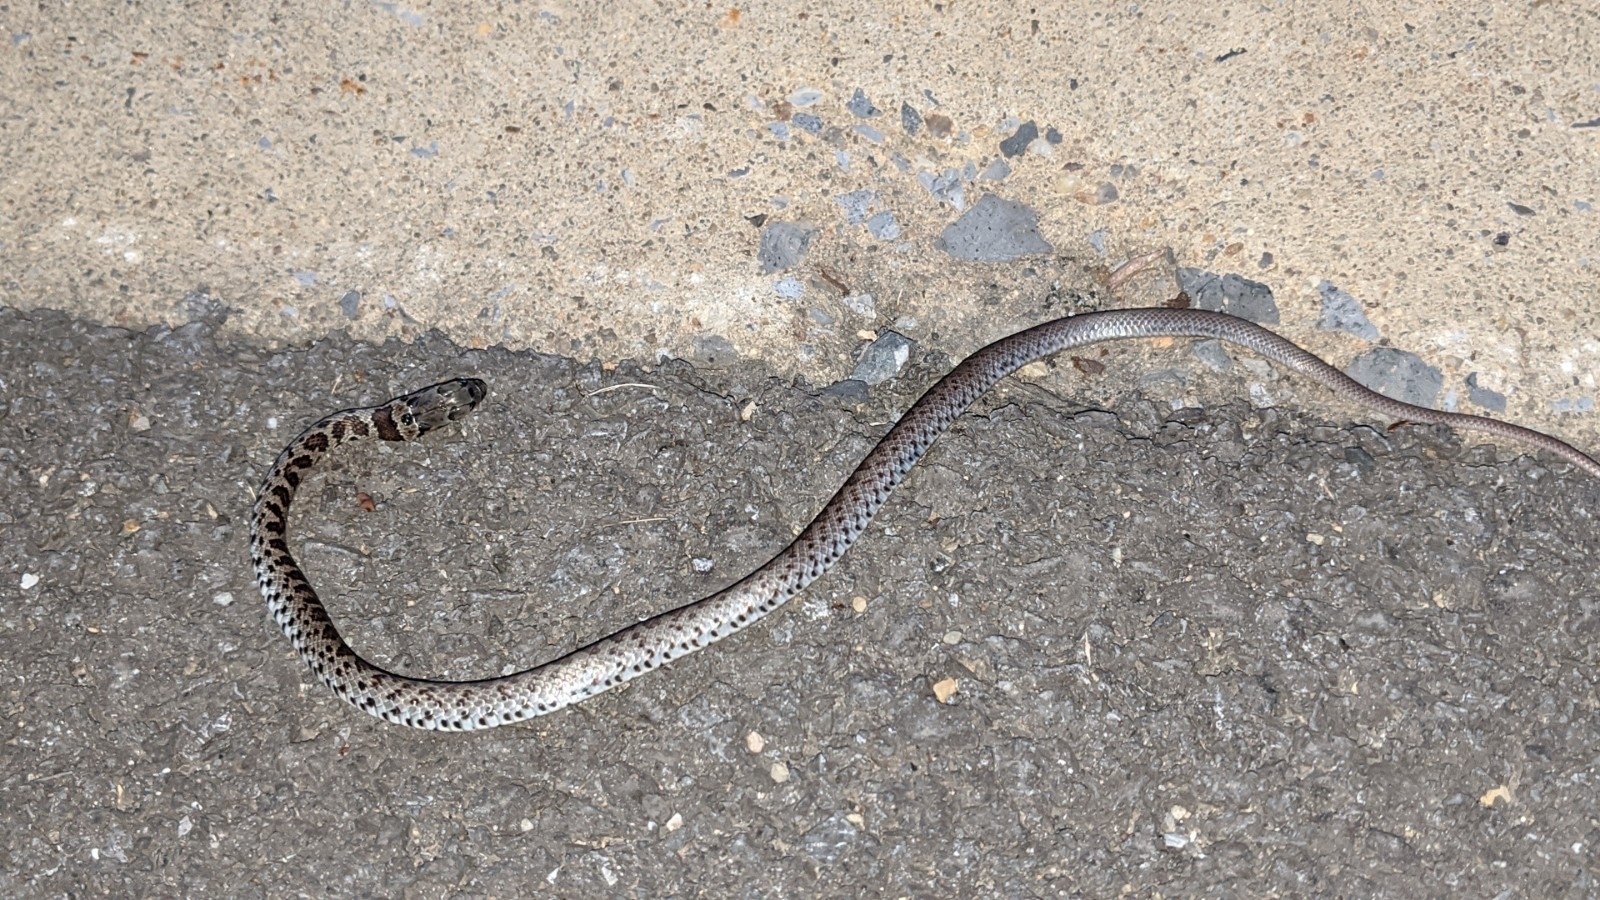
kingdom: Animalia
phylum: Chordata
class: Squamata
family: Colubridae
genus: Coluber
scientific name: Coluber constrictor
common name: Eastern racer
